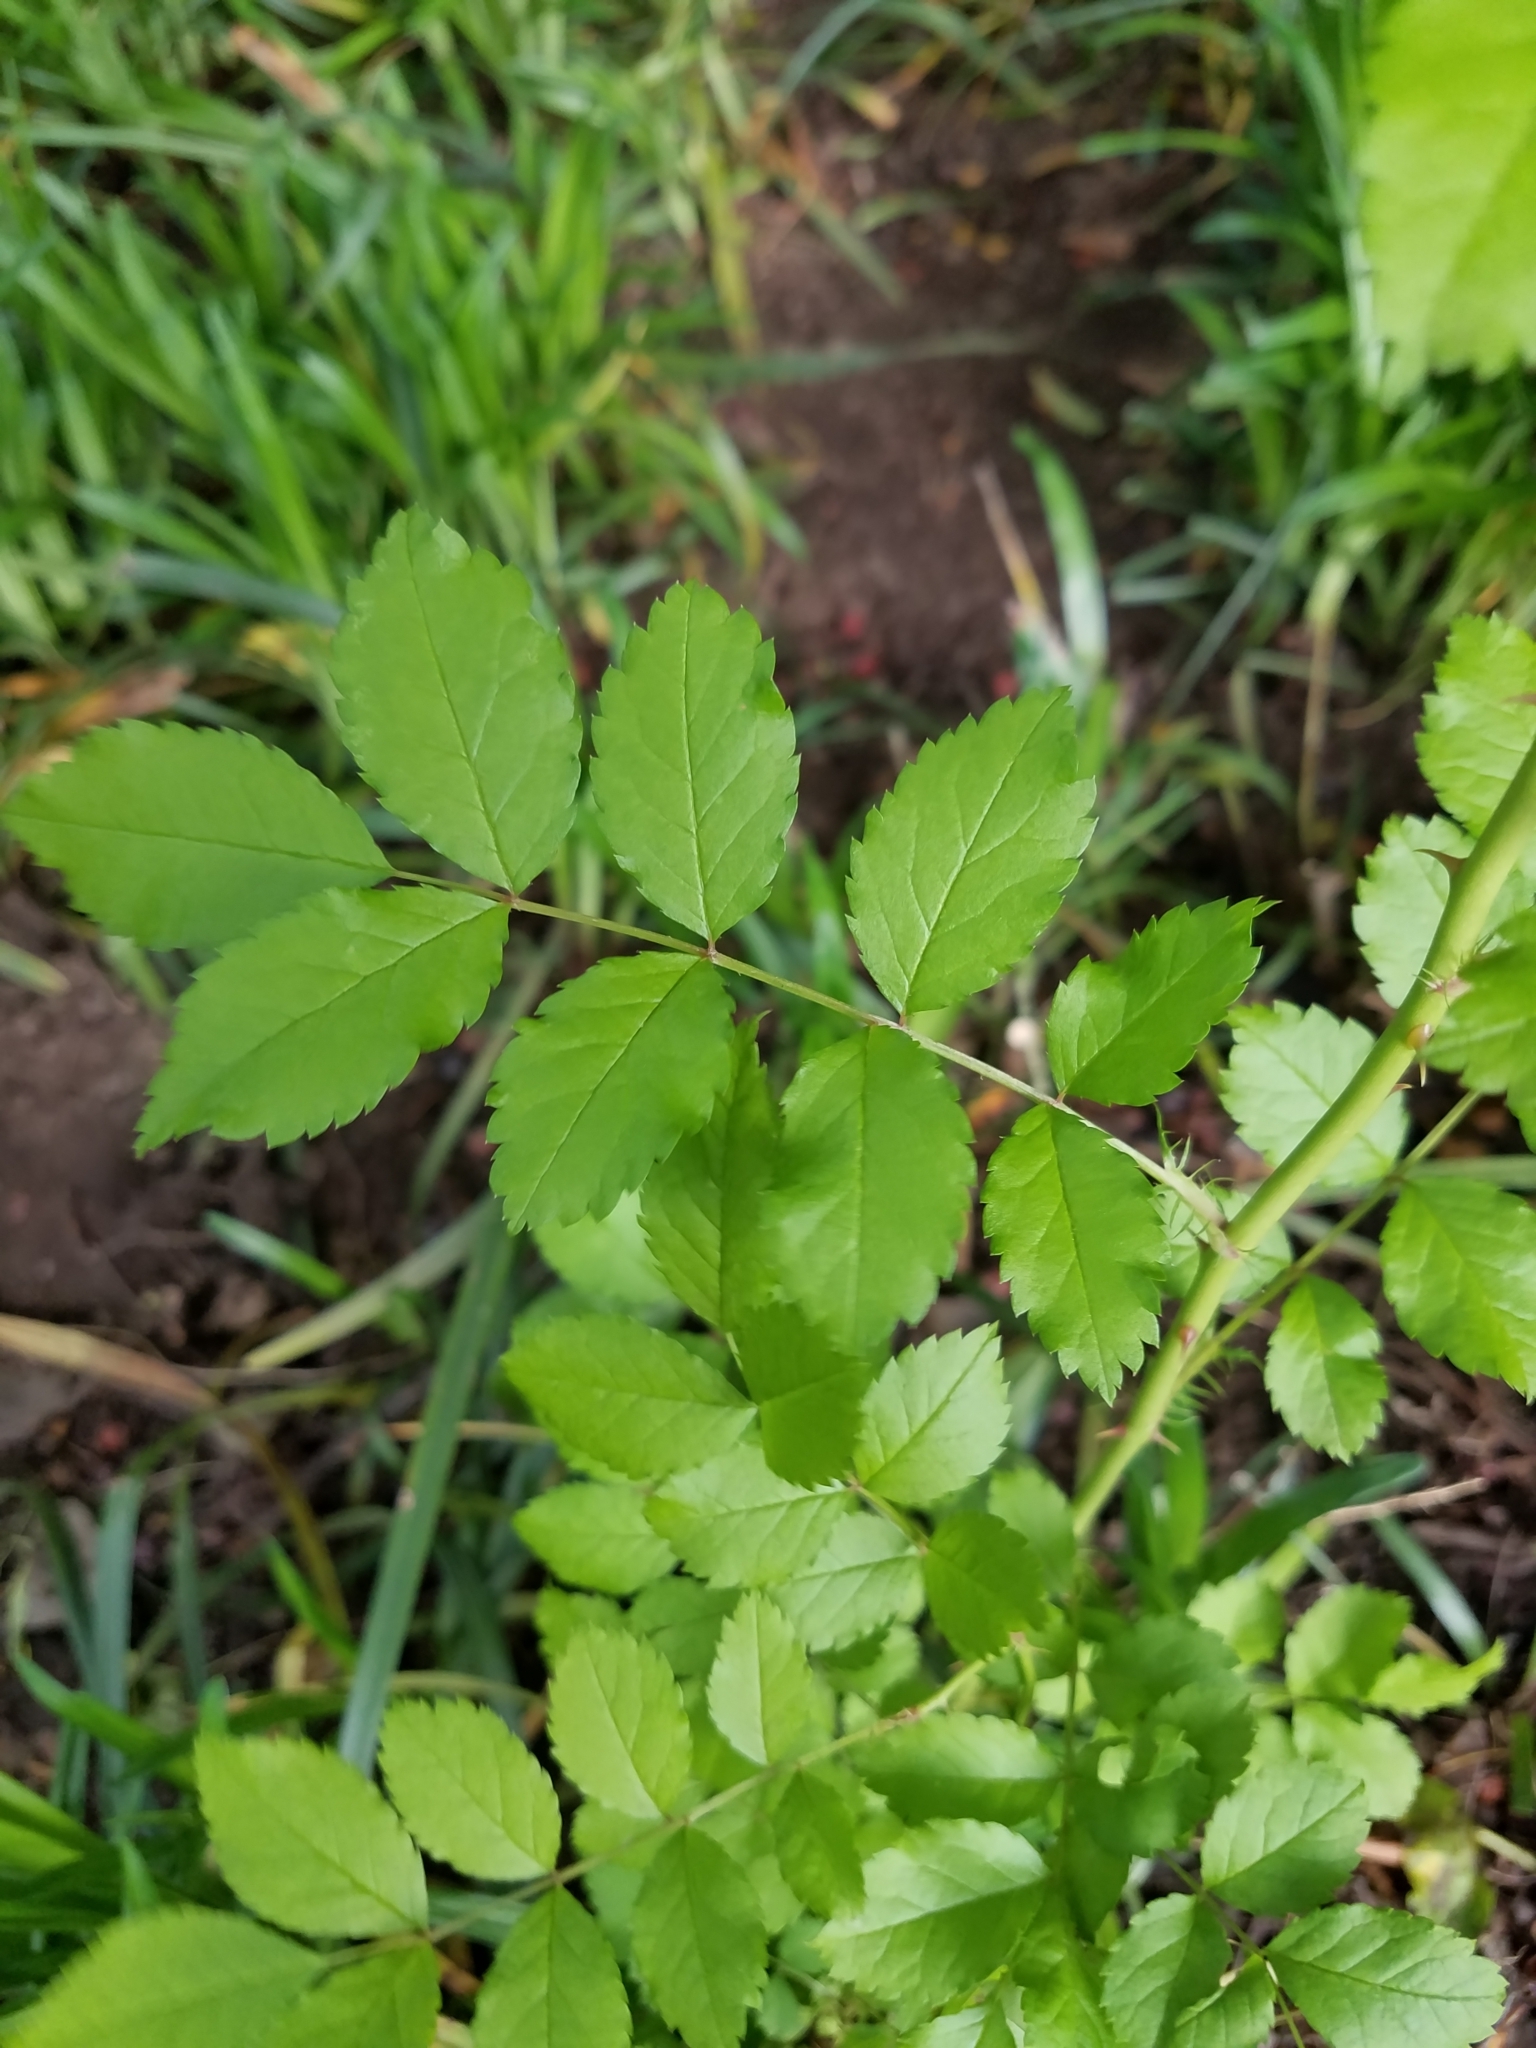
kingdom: Plantae
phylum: Tracheophyta
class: Magnoliopsida
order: Rosales
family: Rosaceae
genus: Rosa
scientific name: Rosa multiflora
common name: Multiflora rose
